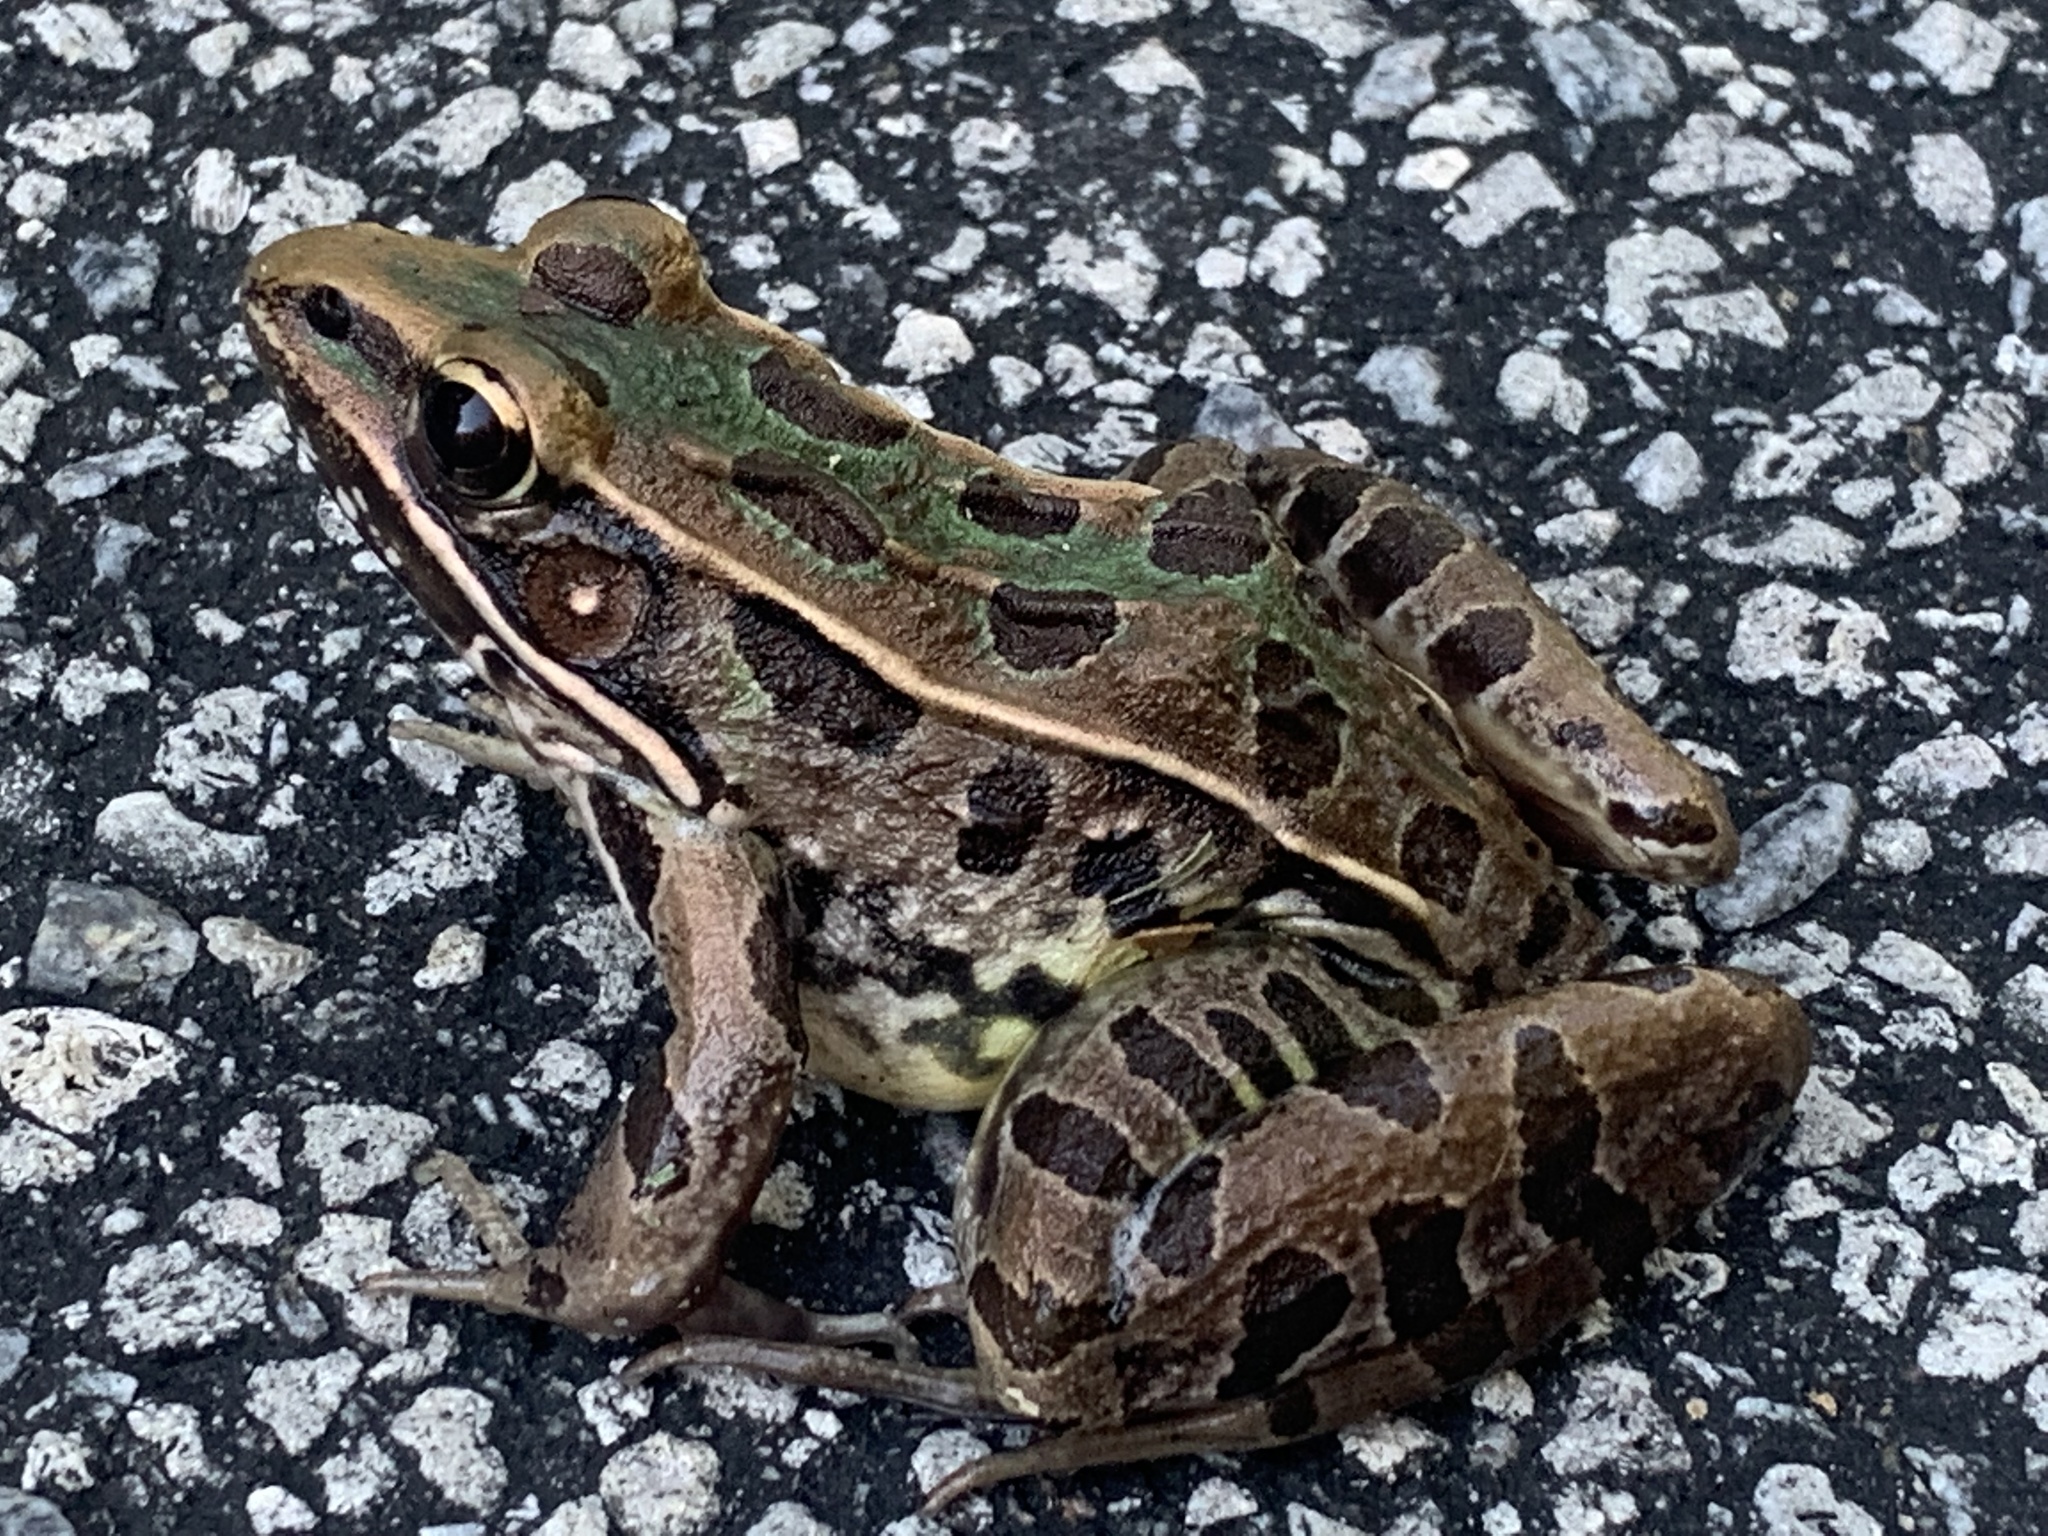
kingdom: Animalia
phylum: Chordata
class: Amphibia
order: Anura
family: Ranidae
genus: Lithobates
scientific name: Lithobates sphenocephalus
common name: Southern leopard frog
